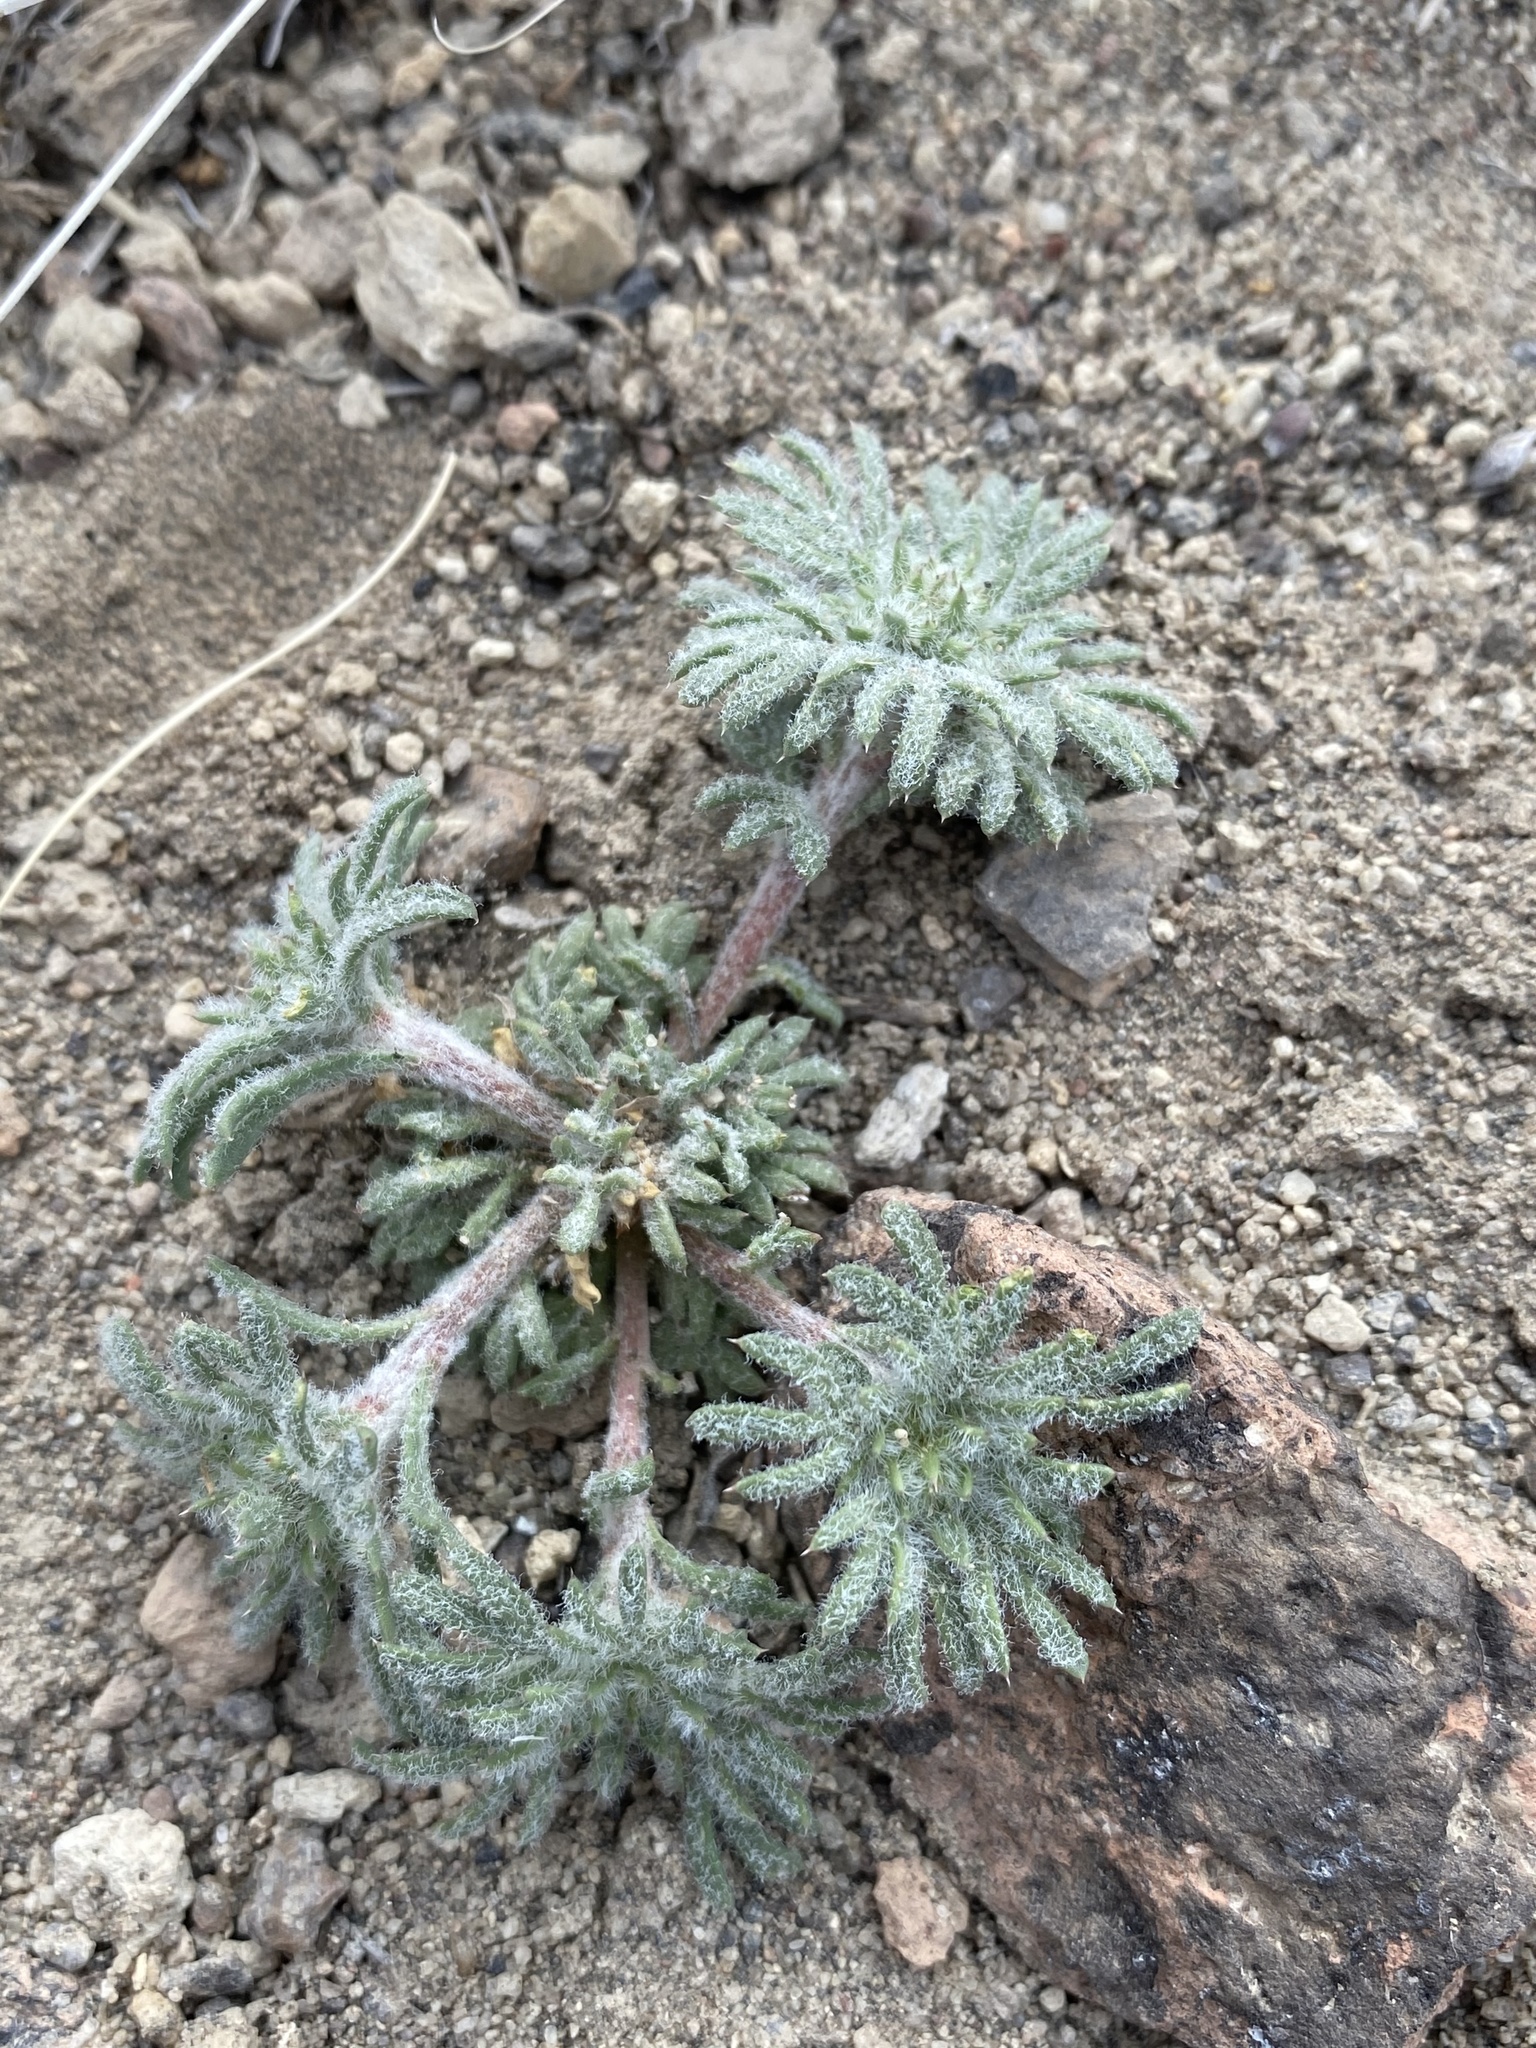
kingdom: Plantae
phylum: Tracheophyta
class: Magnoliopsida
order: Ericales
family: Polemoniaceae
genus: Ipomopsis
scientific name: Ipomopsis congesta
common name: Ball-head gilia
